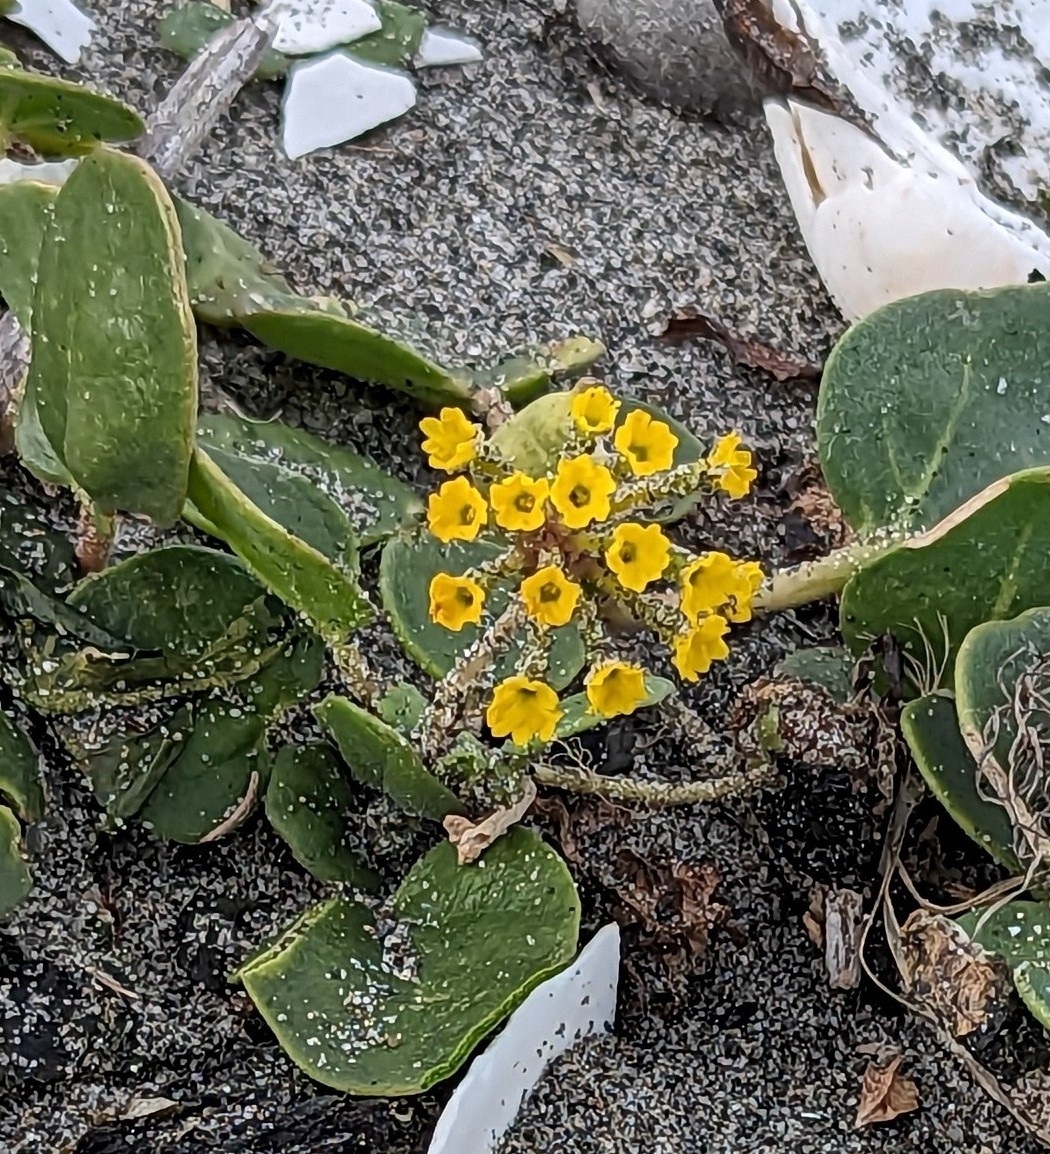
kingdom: Plantae
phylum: Tracheophyta
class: Magnoliopsida
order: Caryophyllales
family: Nyctaginaceae
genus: Abronia
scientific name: Abronia latifolia
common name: Yellow sand-verbena
